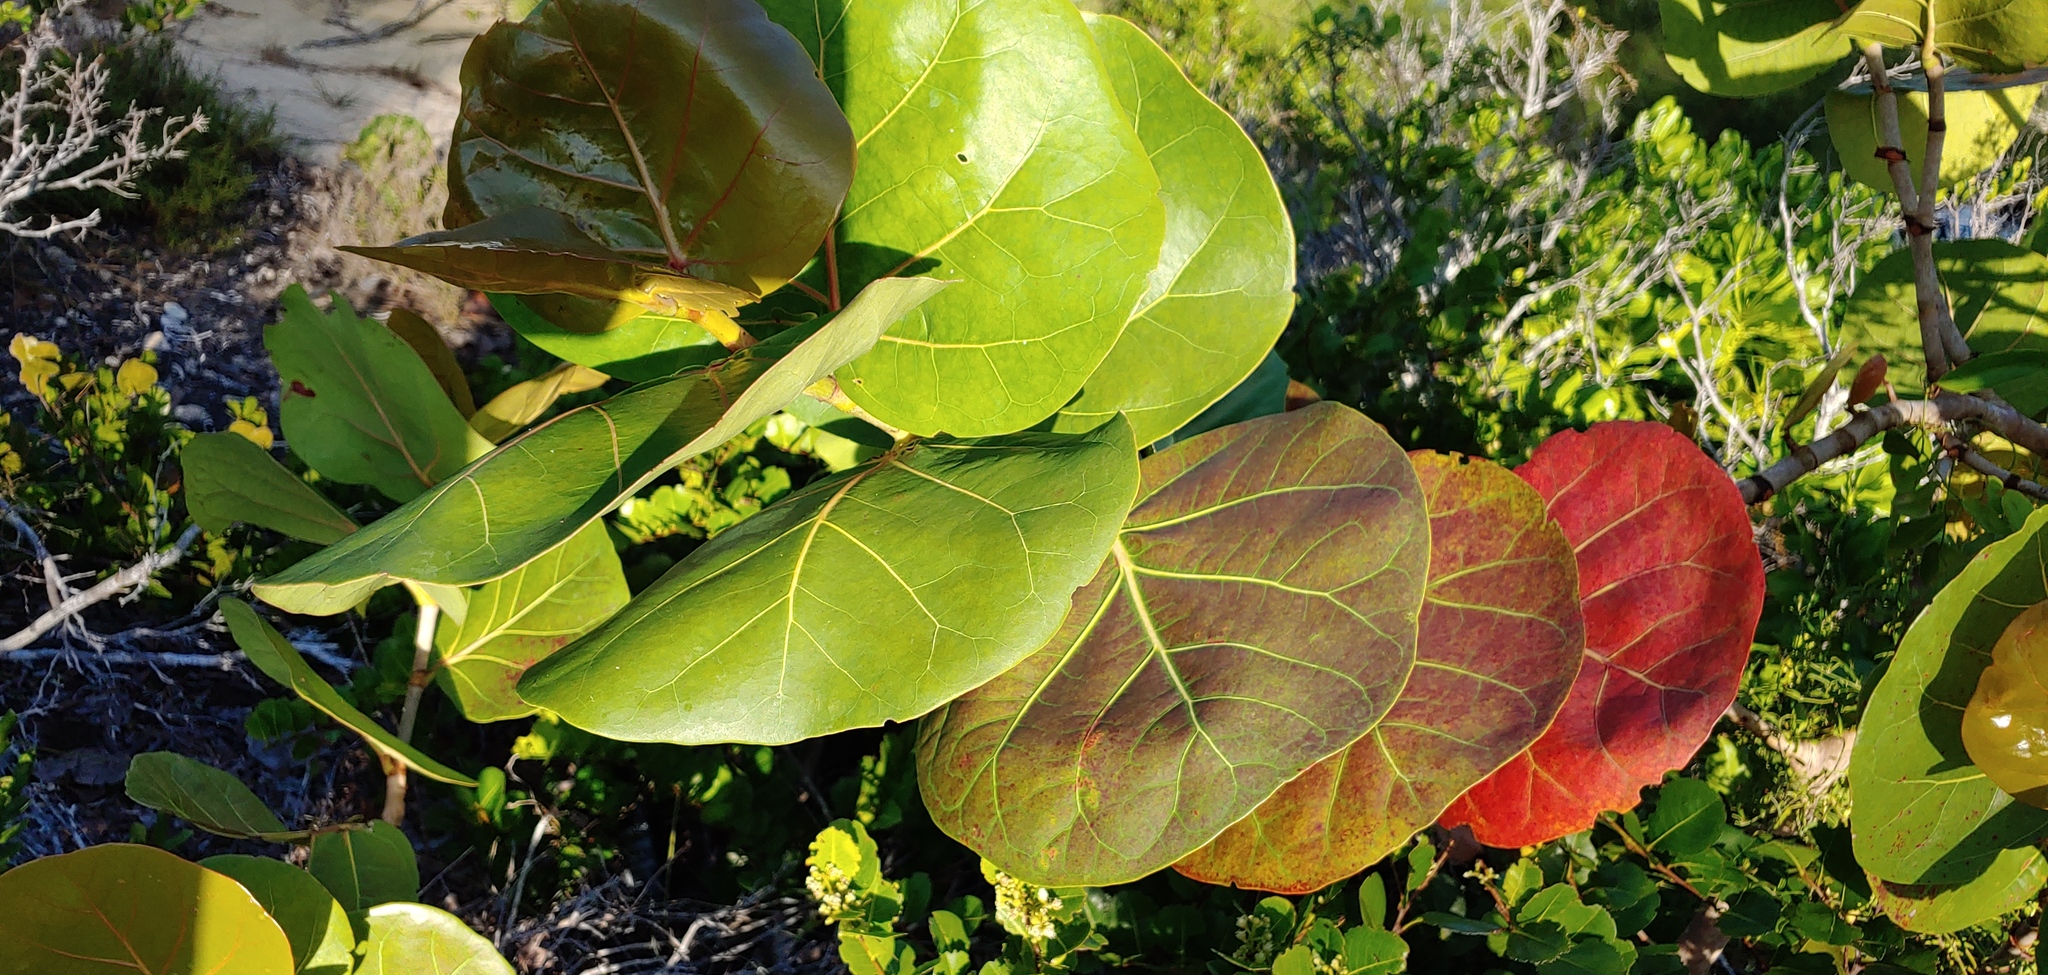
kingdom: Plantae
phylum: Tracheophyta
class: Magnoliopsida
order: Caryophyllales
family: Polygonaceae
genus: Coccoloba
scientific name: Coccoloba uvifera
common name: Seagrape
